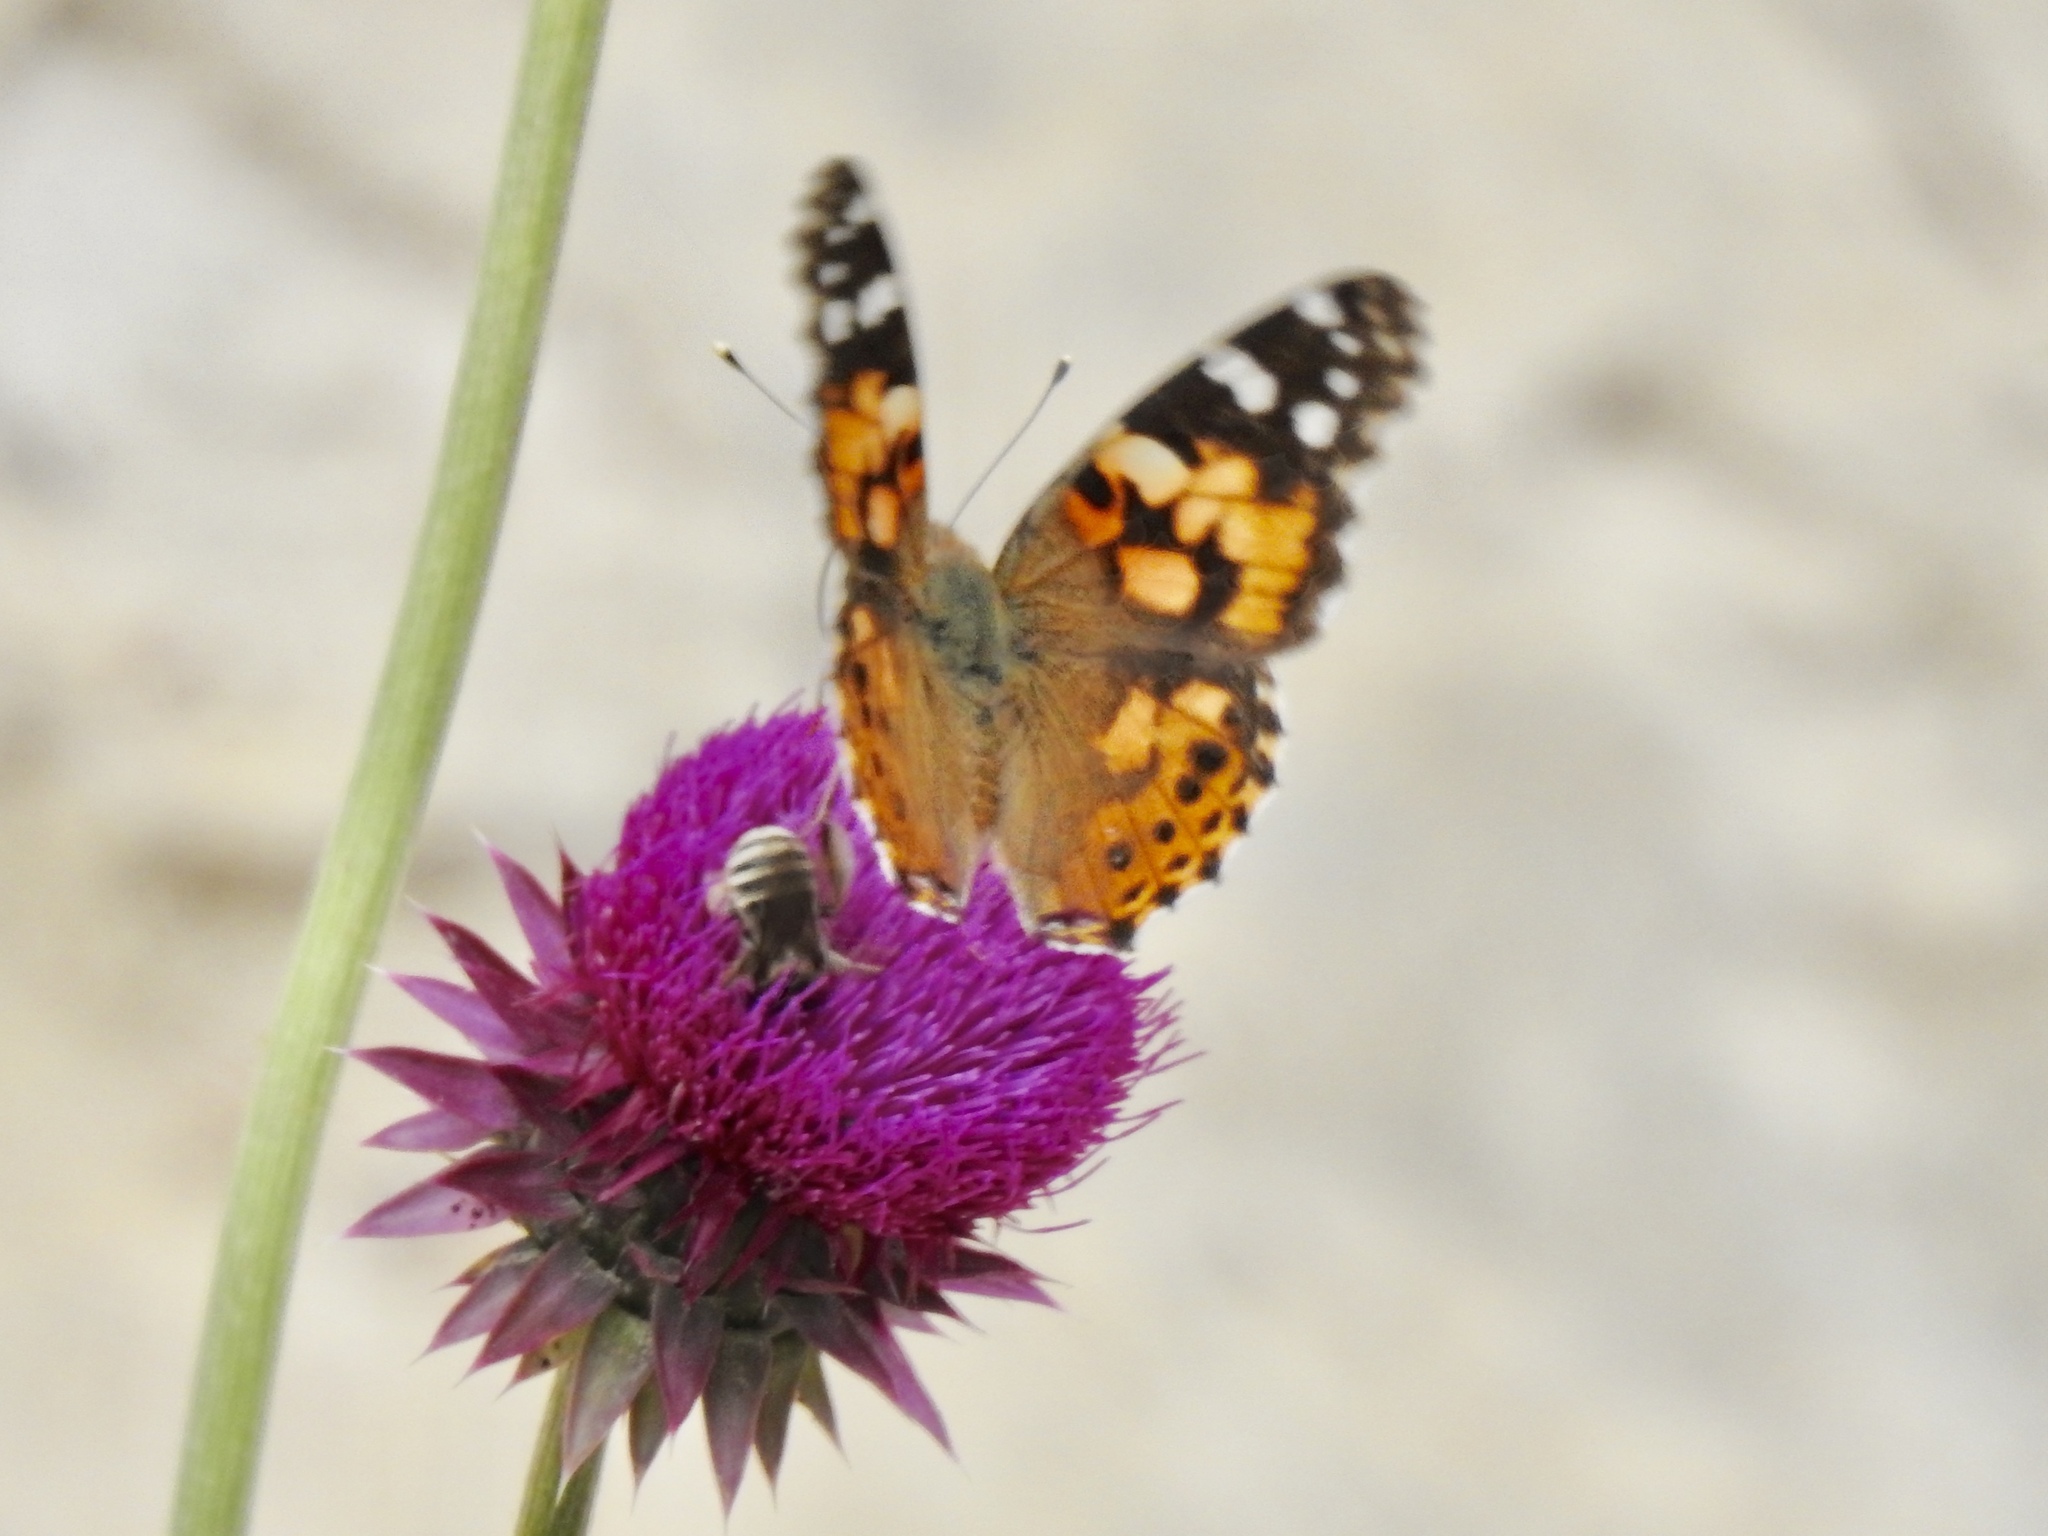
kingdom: Animalia
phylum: Arthropoda
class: Insecta
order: Lepidoptera
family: Nymphalidae
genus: Vanessa
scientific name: Vanessa cardui
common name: Painted lady
